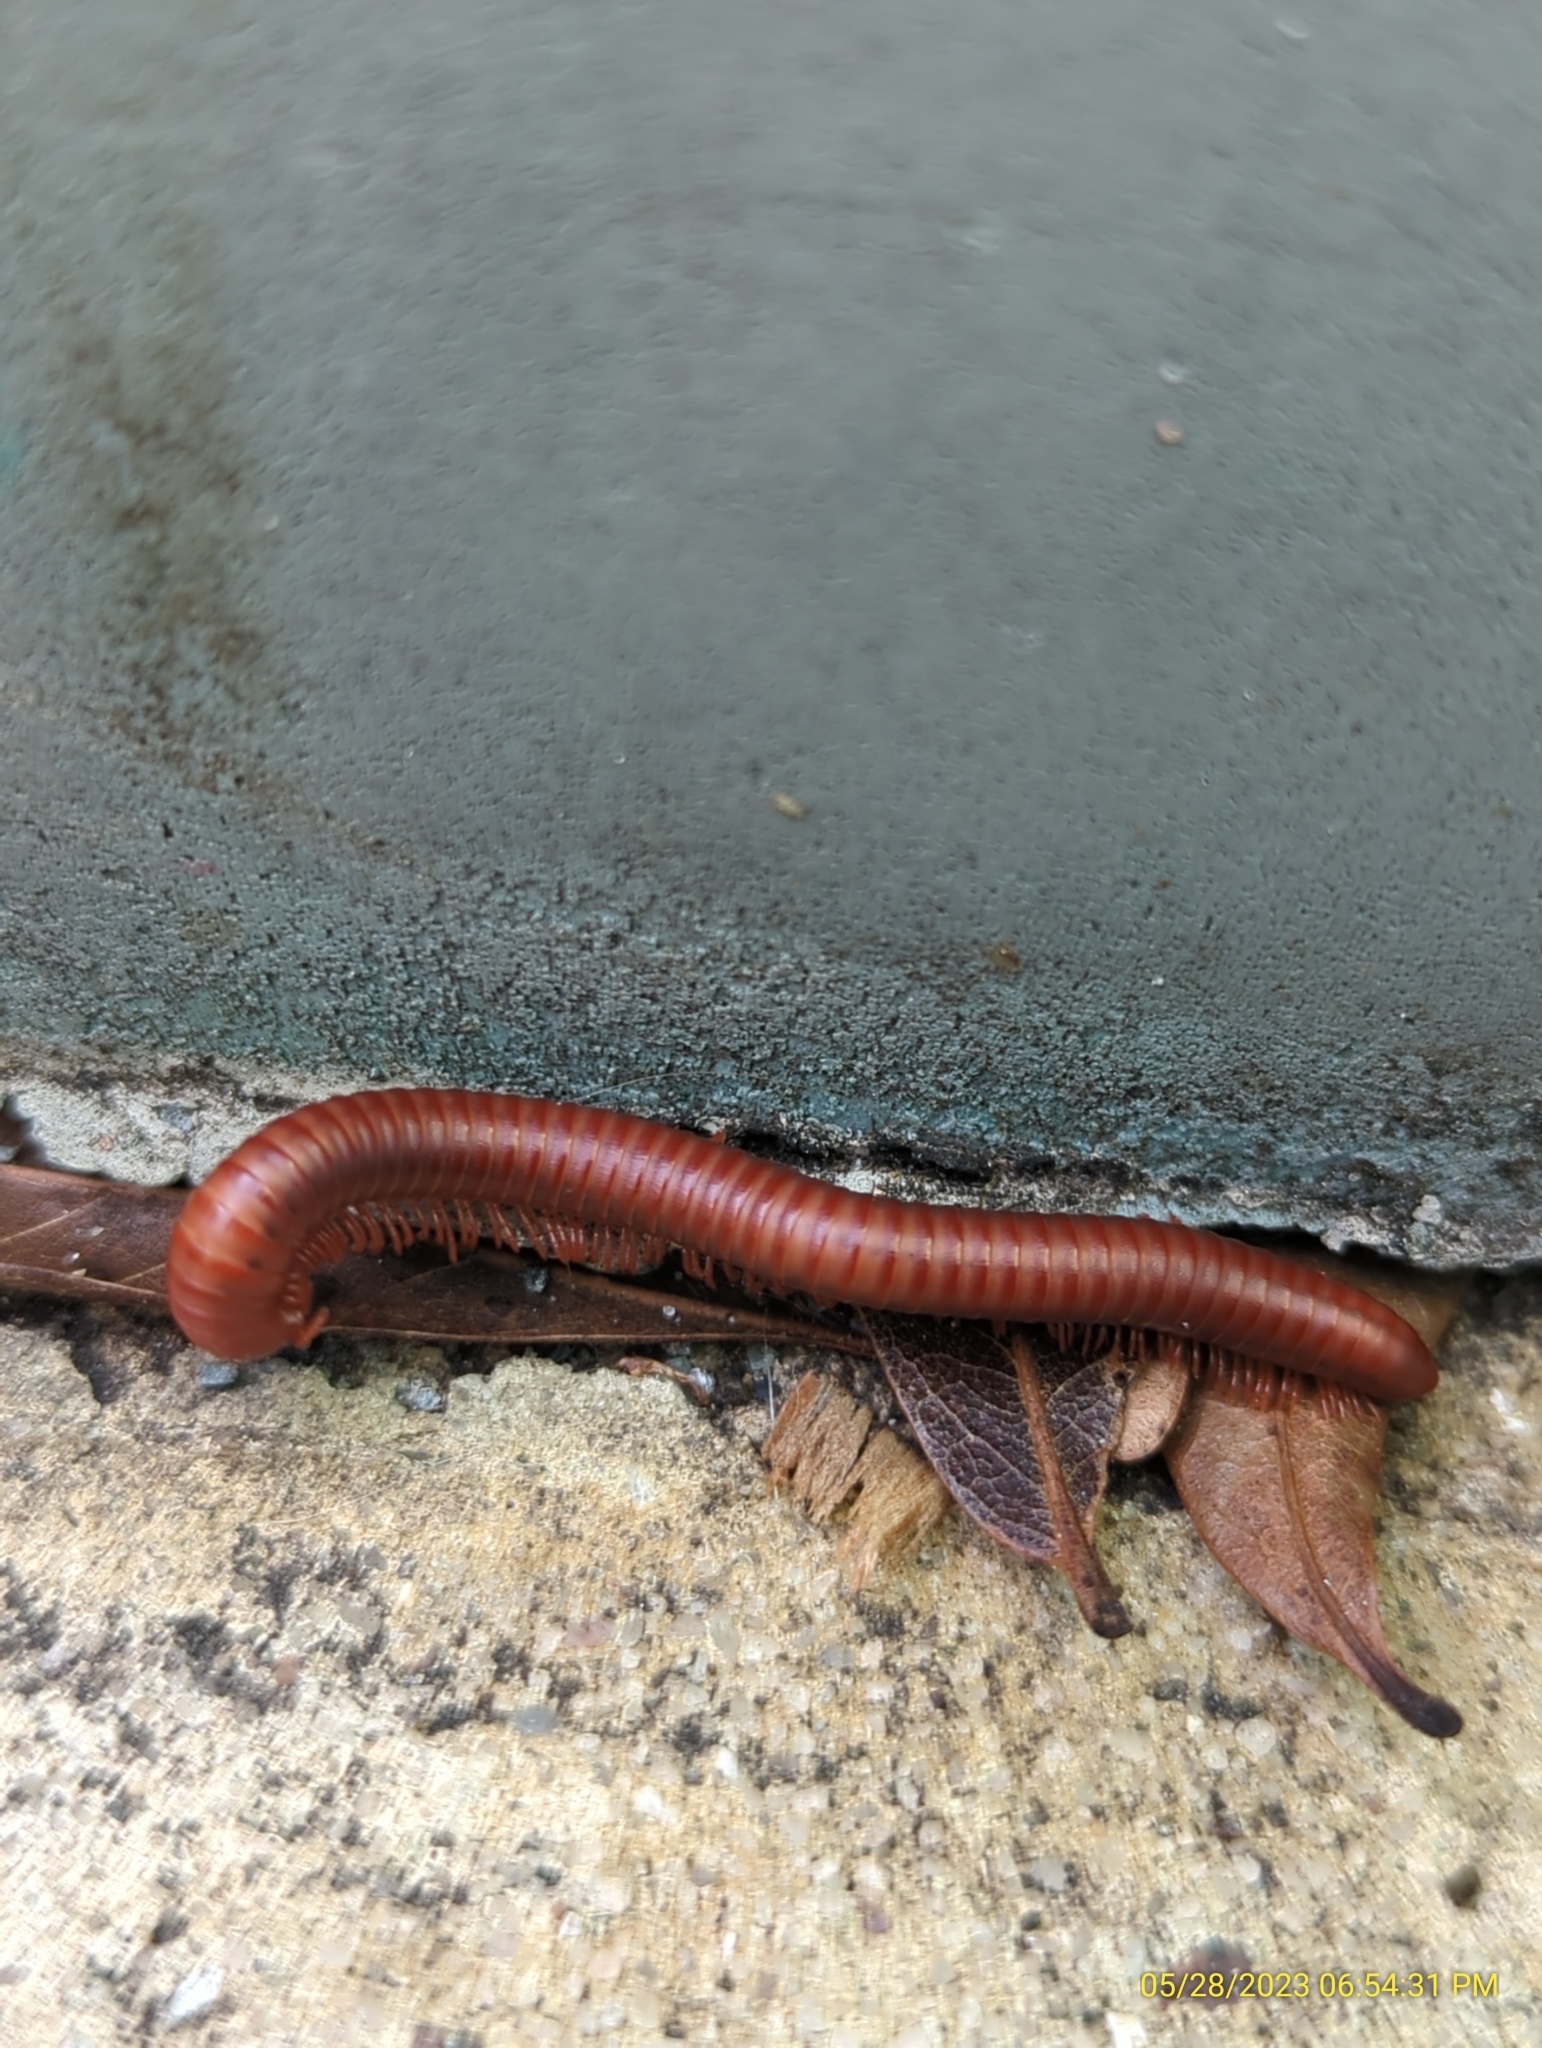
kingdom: Animalia
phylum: Arthropoda
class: Diplopoda
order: Spirobolida
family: Pachybolidae
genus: Trigoniulus
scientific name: Trigoniulus corallinus
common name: Millipede
